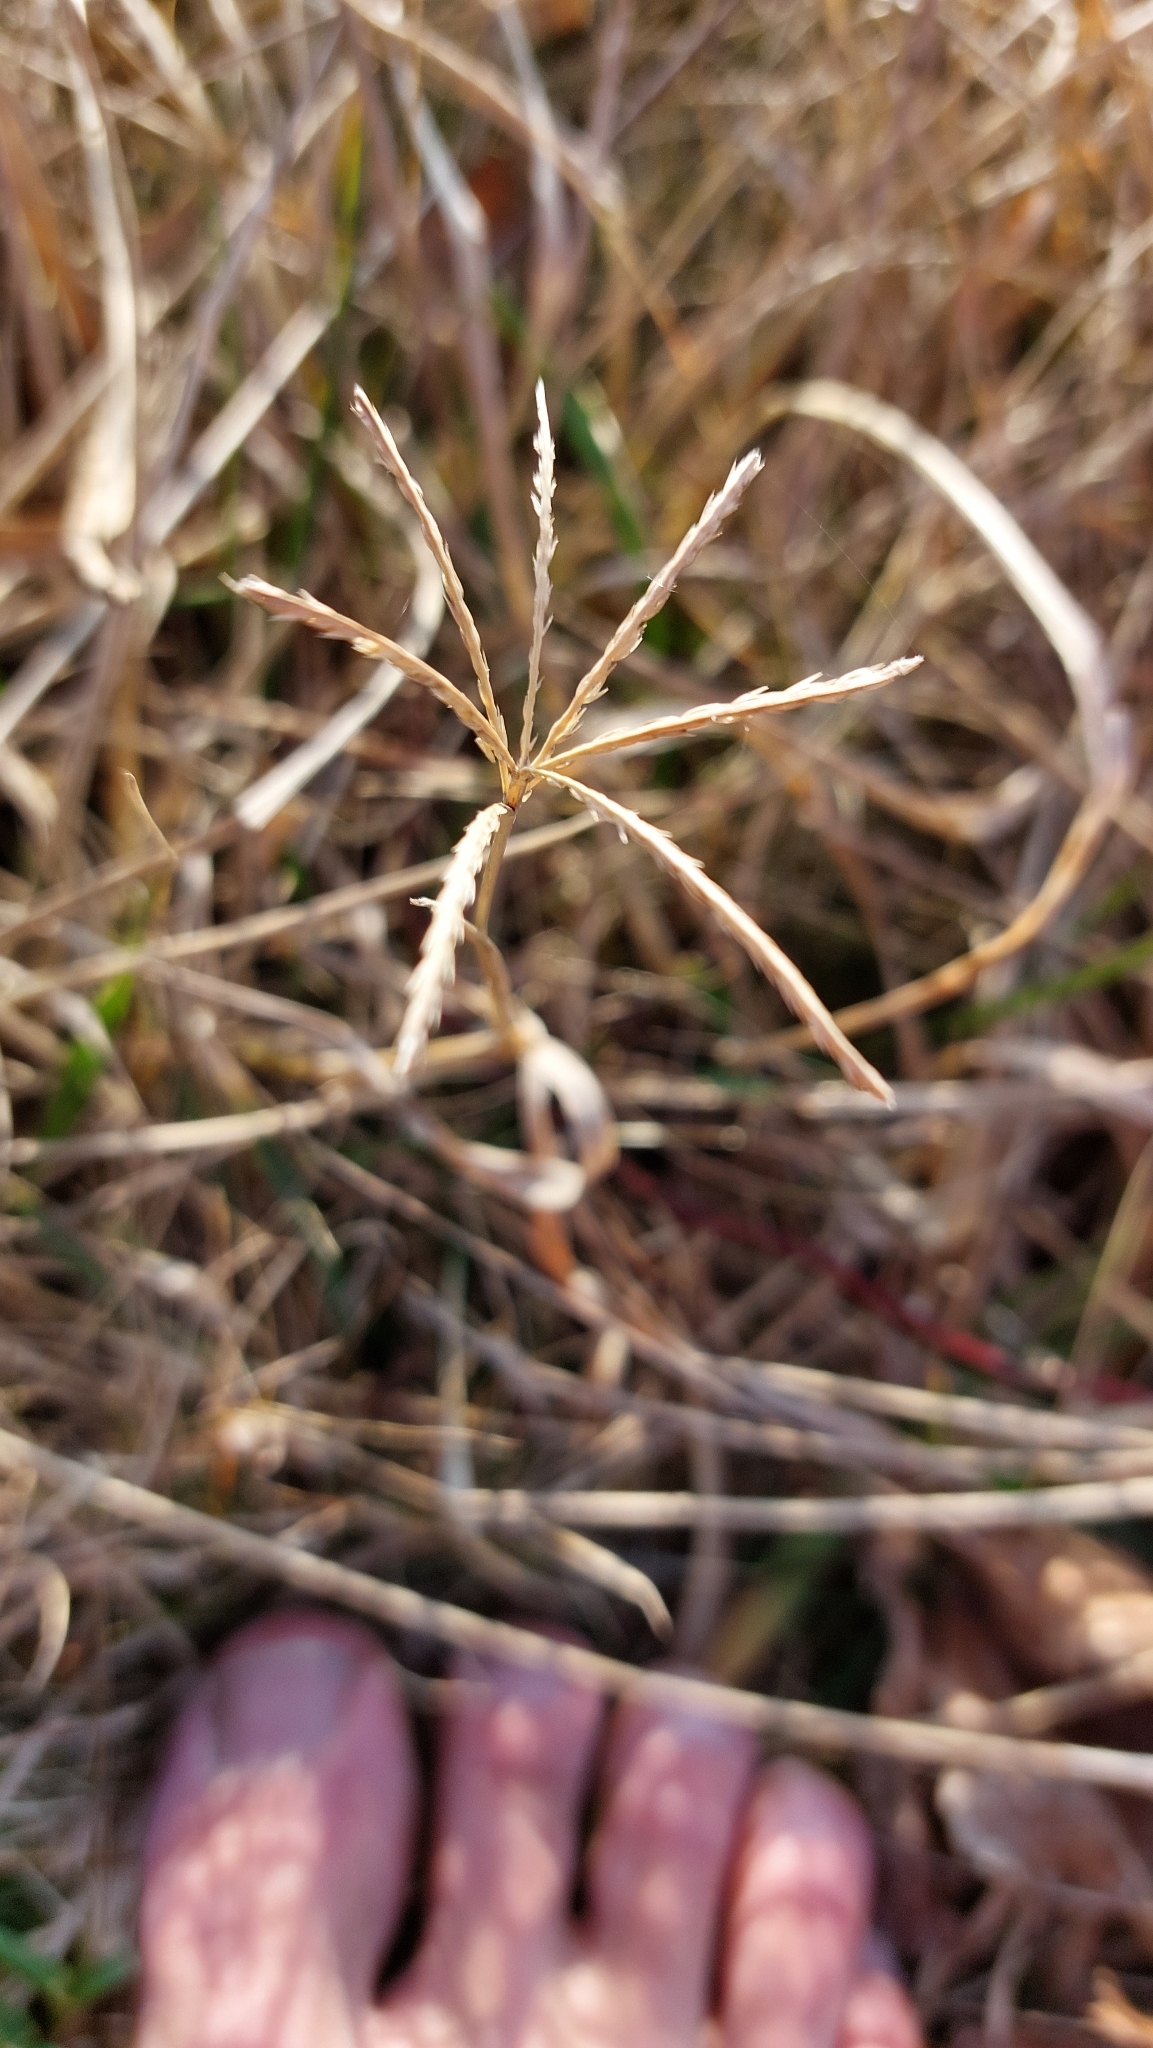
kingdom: Plantae
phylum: Tracheophyta
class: Liliopsida
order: Poales
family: Poaceae
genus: Cynodon
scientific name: Cynodon dactylon
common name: Bermuda grass
